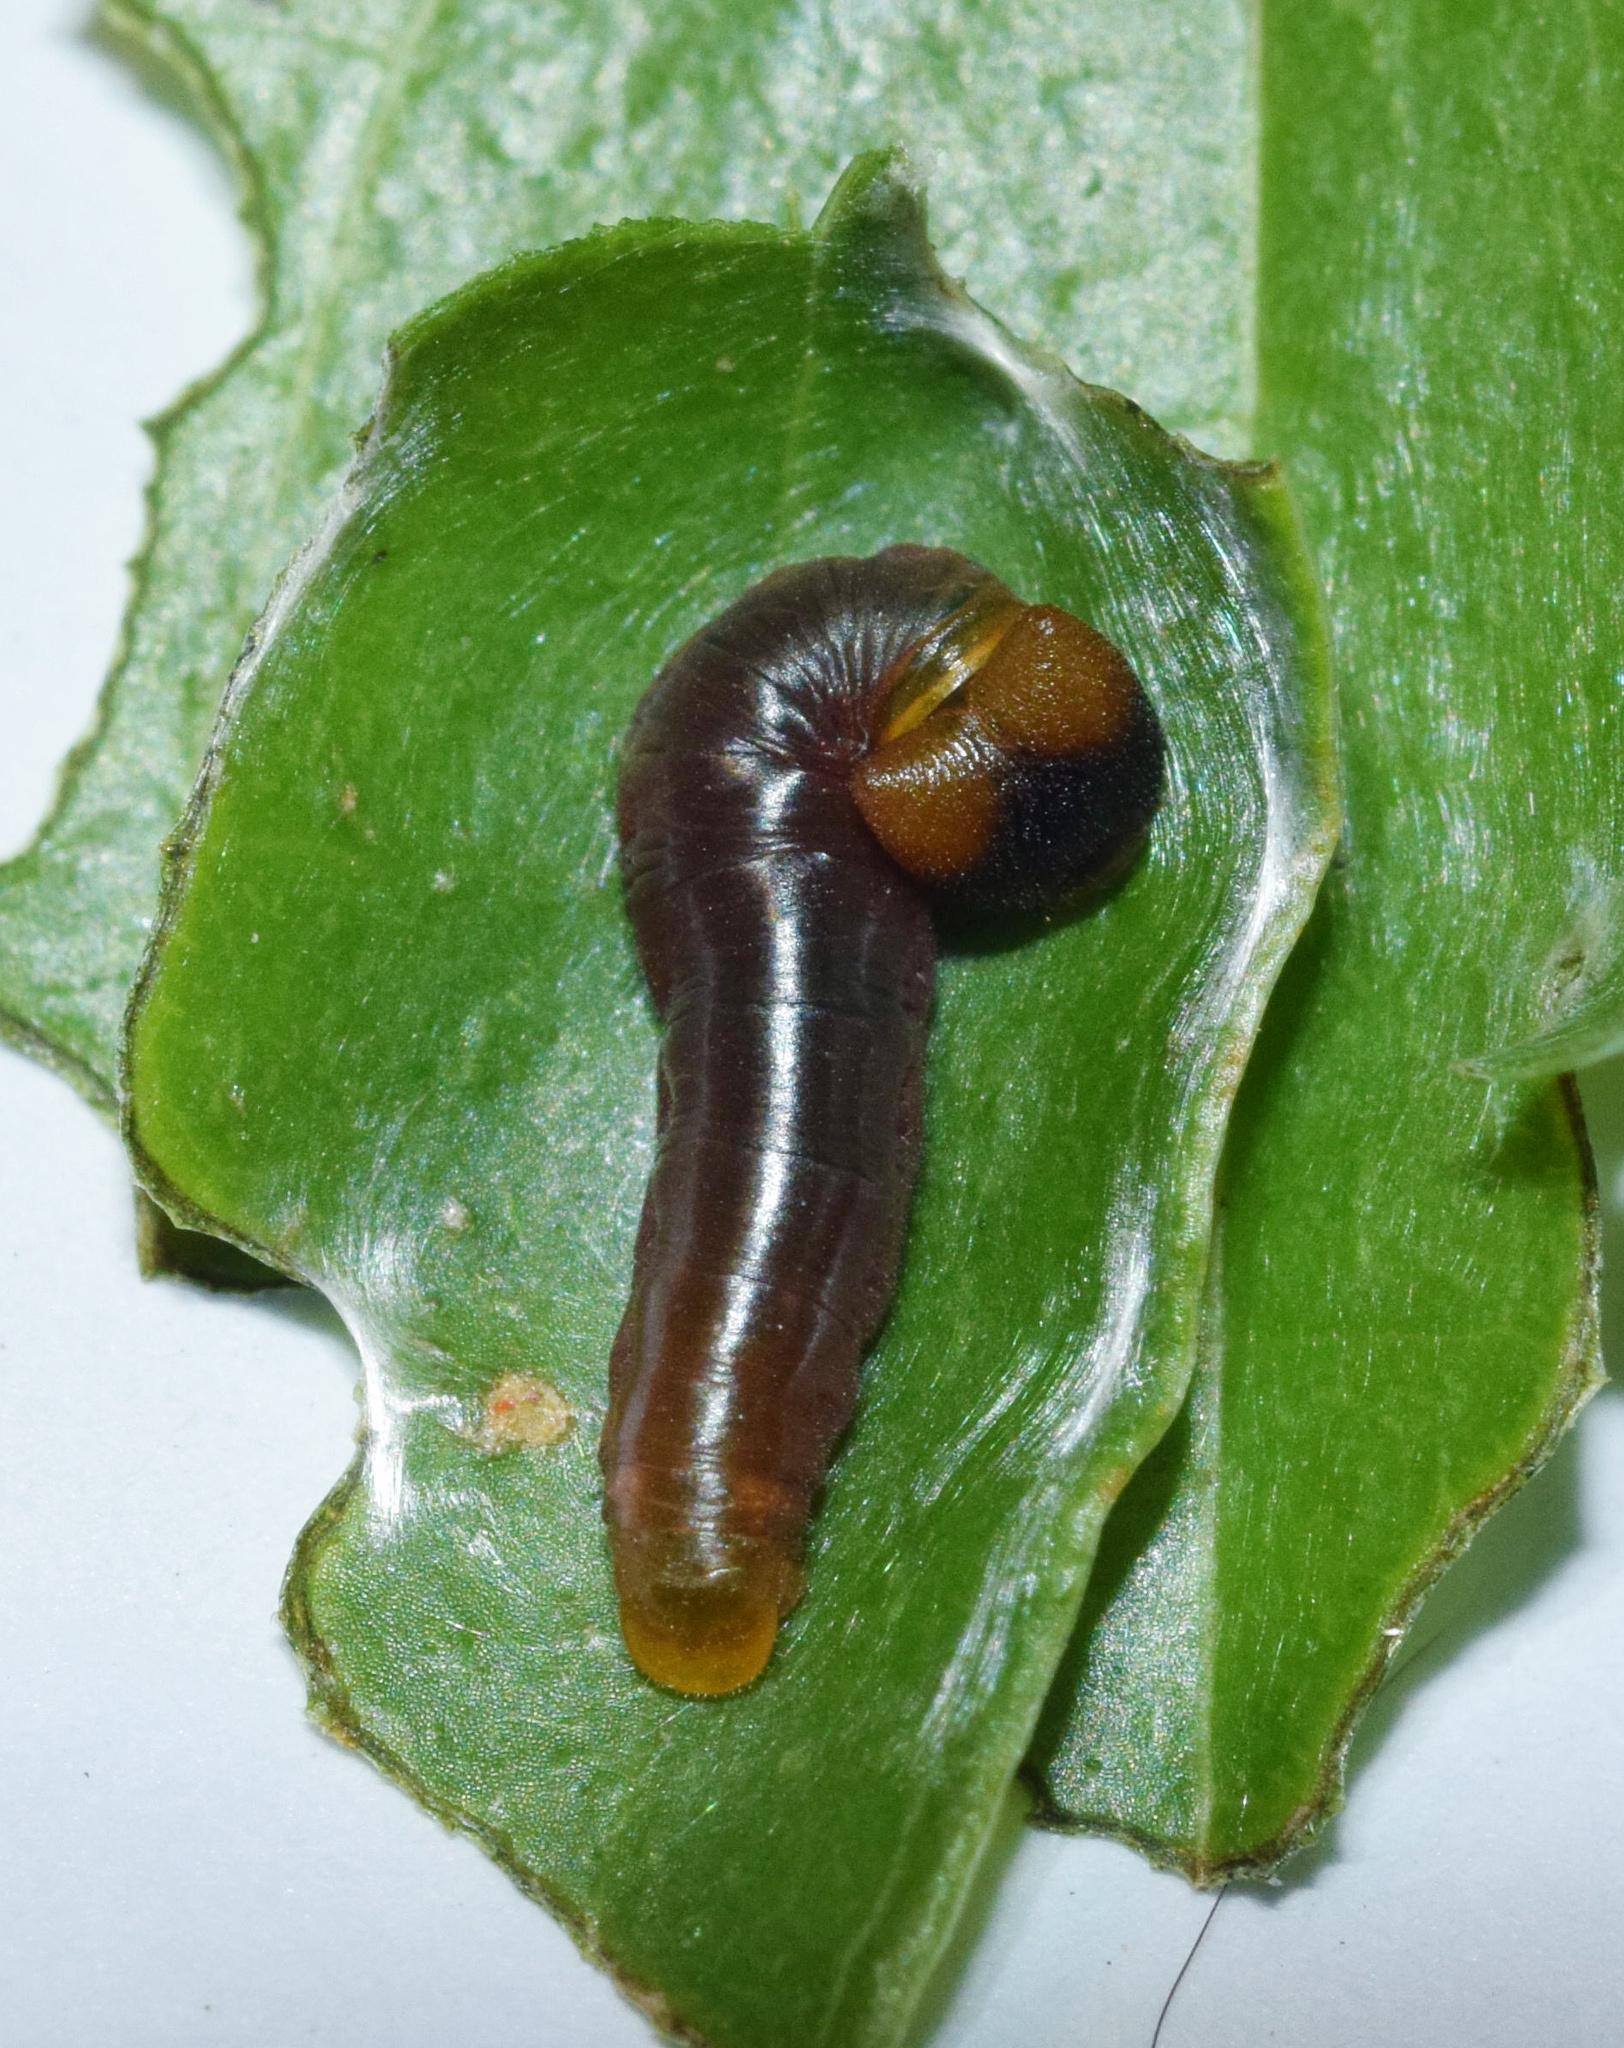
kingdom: Plantae
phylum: Tracheophyta
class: Liliopsida
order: Dioscoreales
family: Dioscoreaceae
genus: Dioscorea
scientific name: Dioscorea cotinifolia
